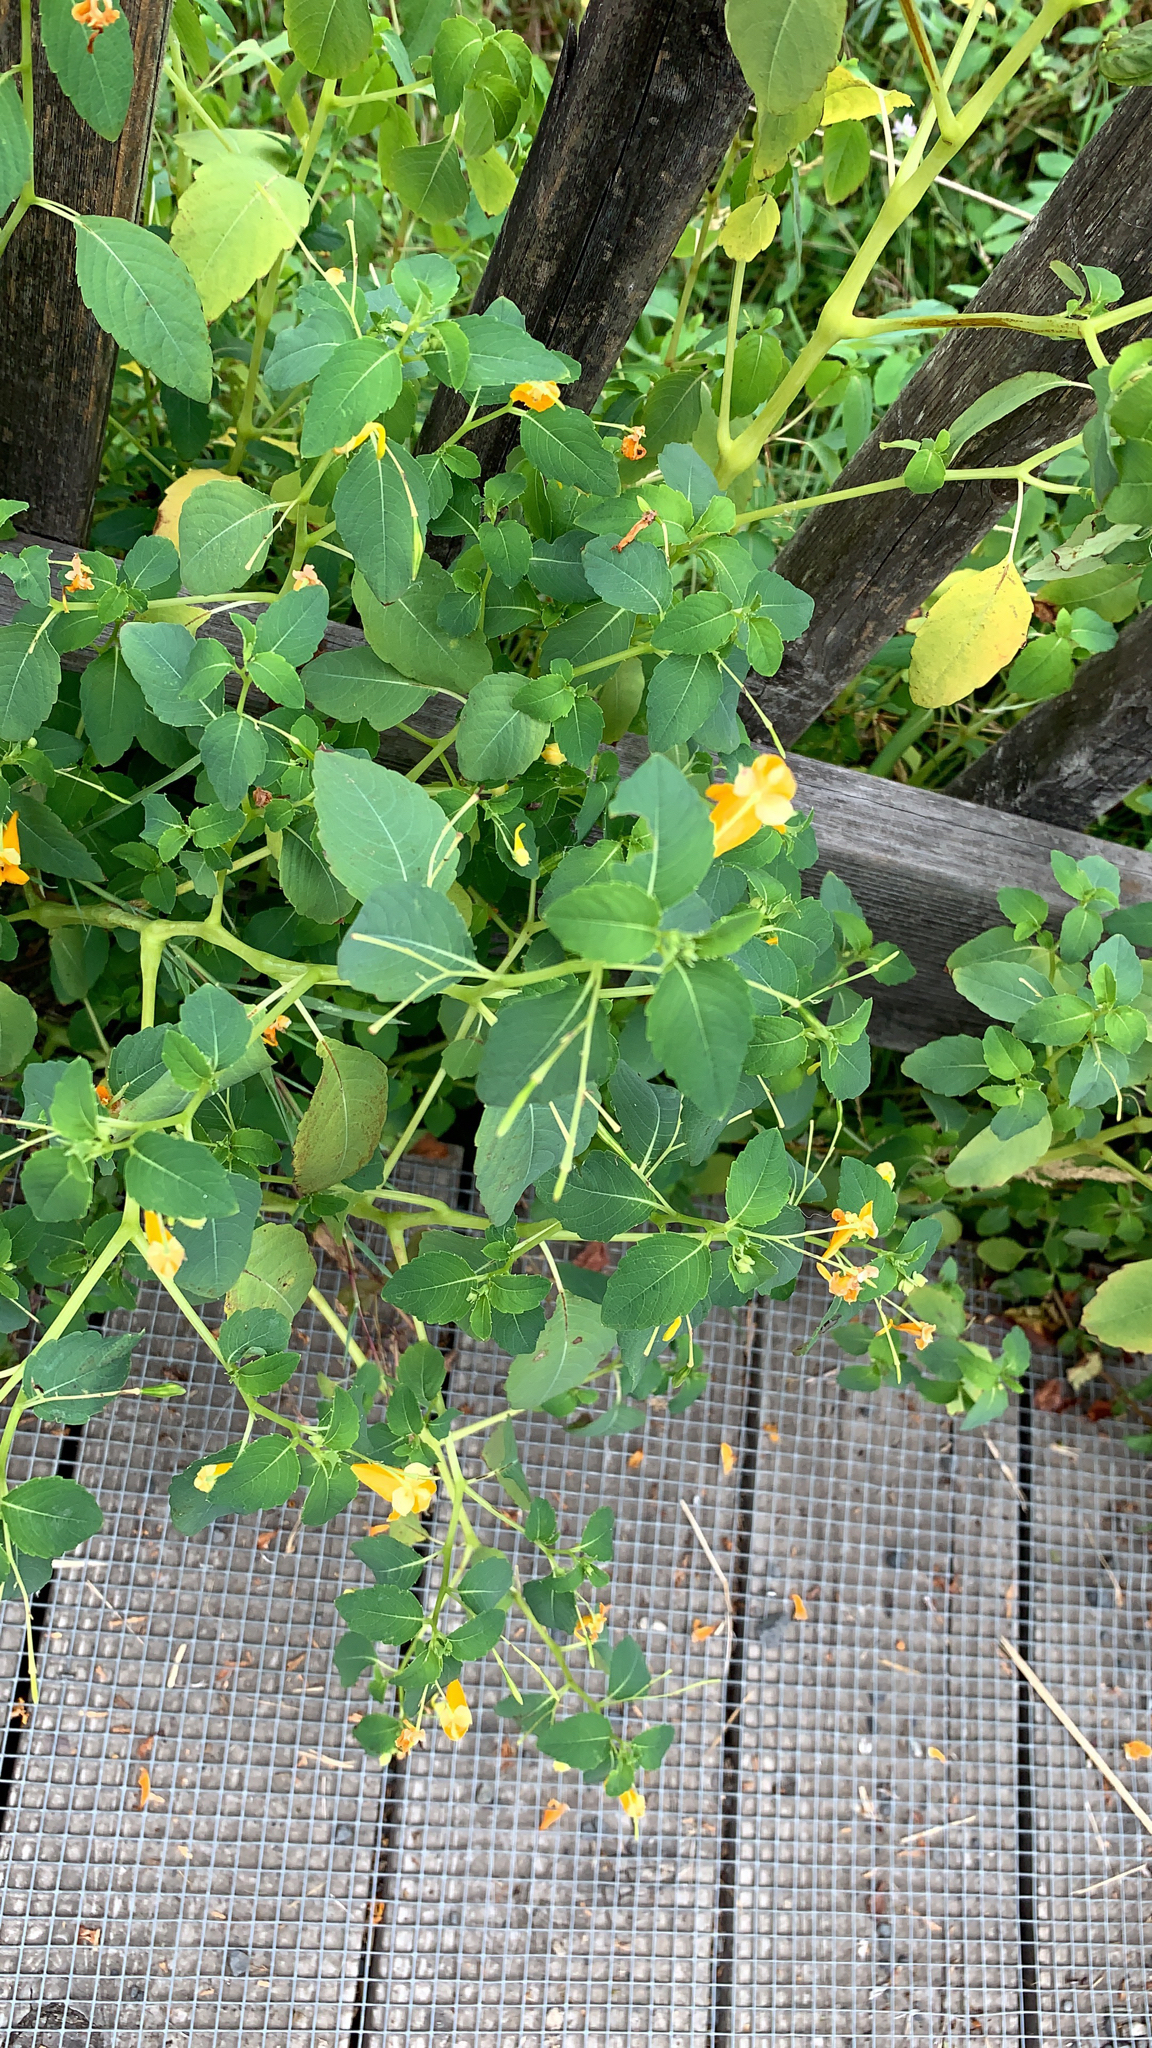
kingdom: Plantae
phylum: Tracheophyta
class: Magnoliopsida
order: Ericales
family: Balsaminaceae
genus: Impatiens
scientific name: Impatiens capensis
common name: Orange balsam
